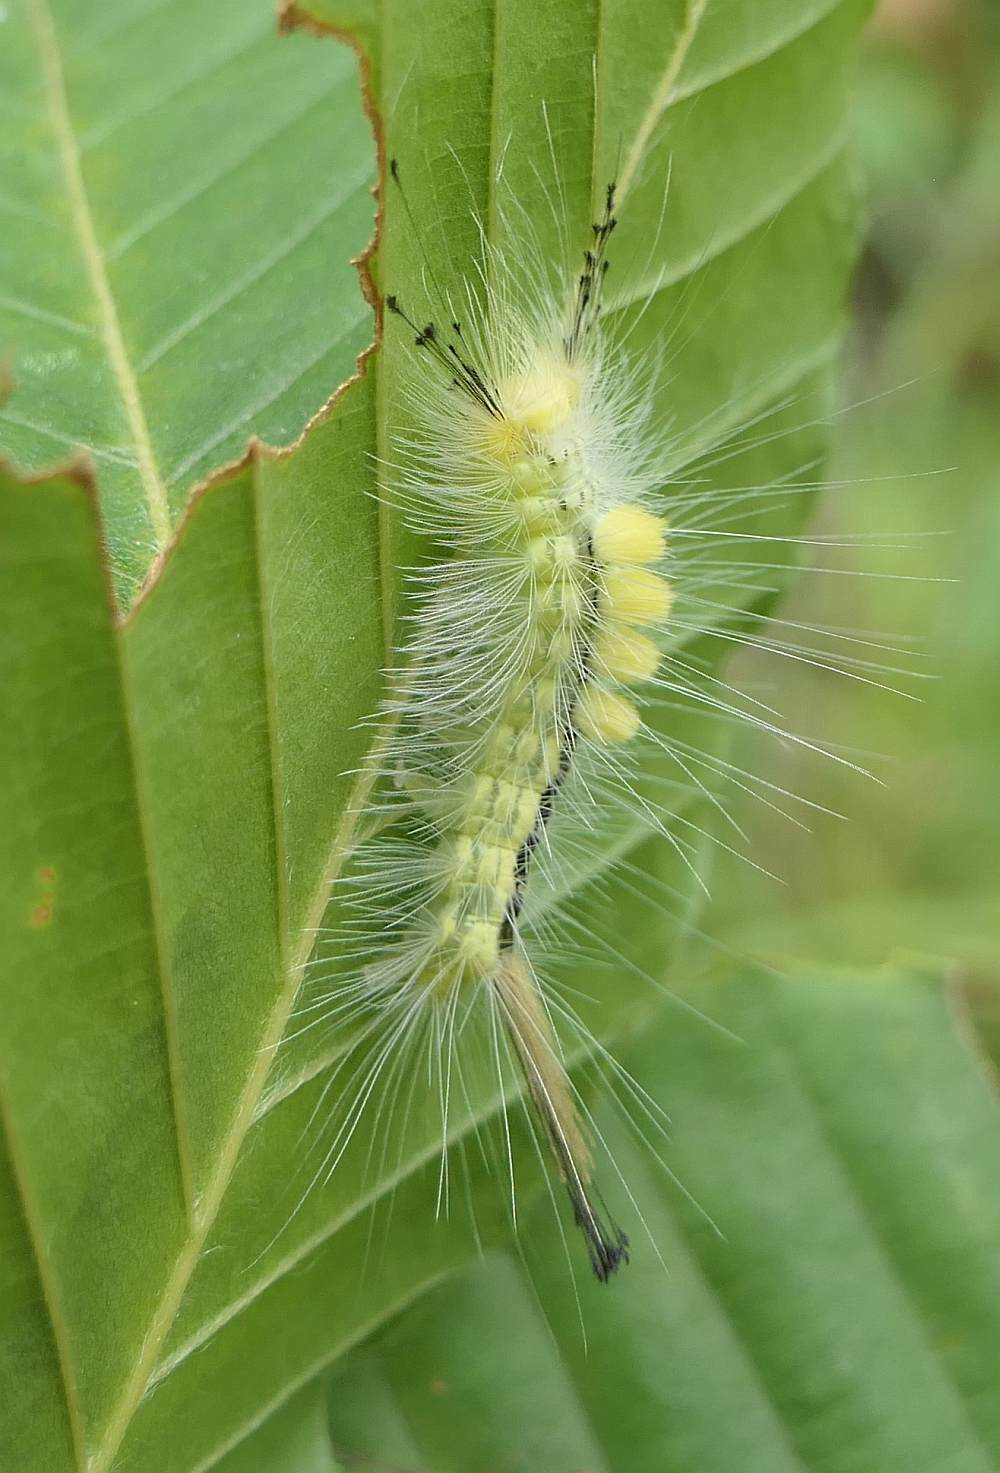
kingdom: Animalia
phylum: Arthropoda
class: Insecta
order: Lepidoptera
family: Erebidae
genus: Orgyia
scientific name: Orgyia definita
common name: Definite tussock moth
